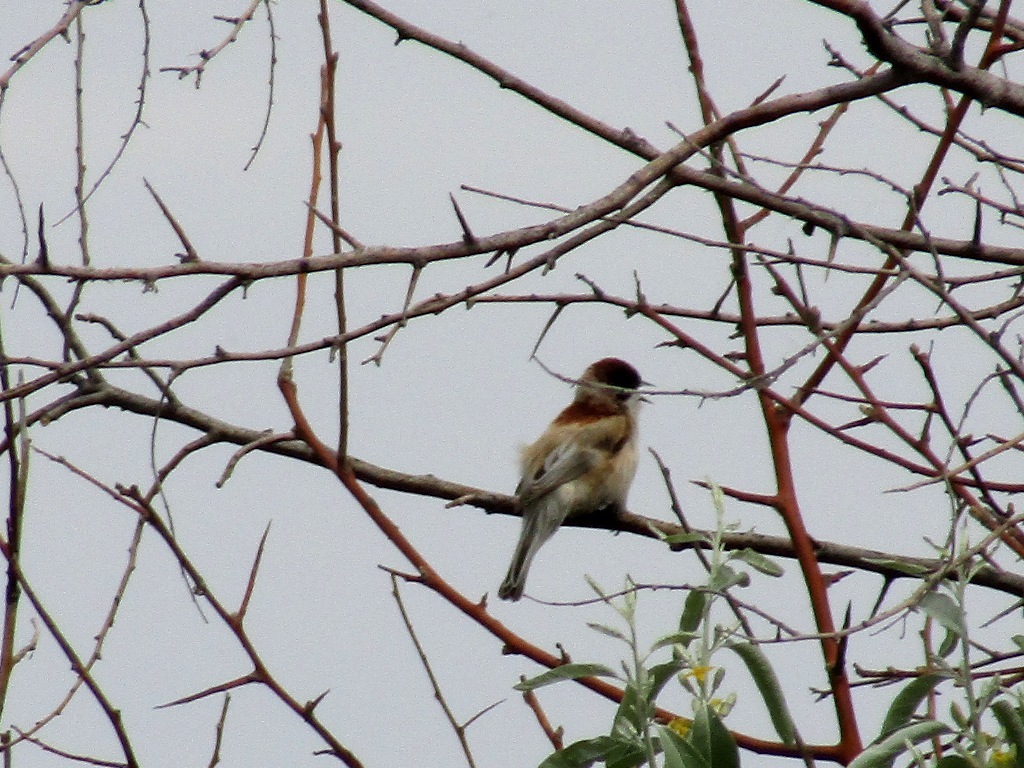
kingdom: Animalia
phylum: Chordata
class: Aves
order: Passeriformes
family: Remizidae
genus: Remiz
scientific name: Remiz pendulinus
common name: Eurasian penduline tit
